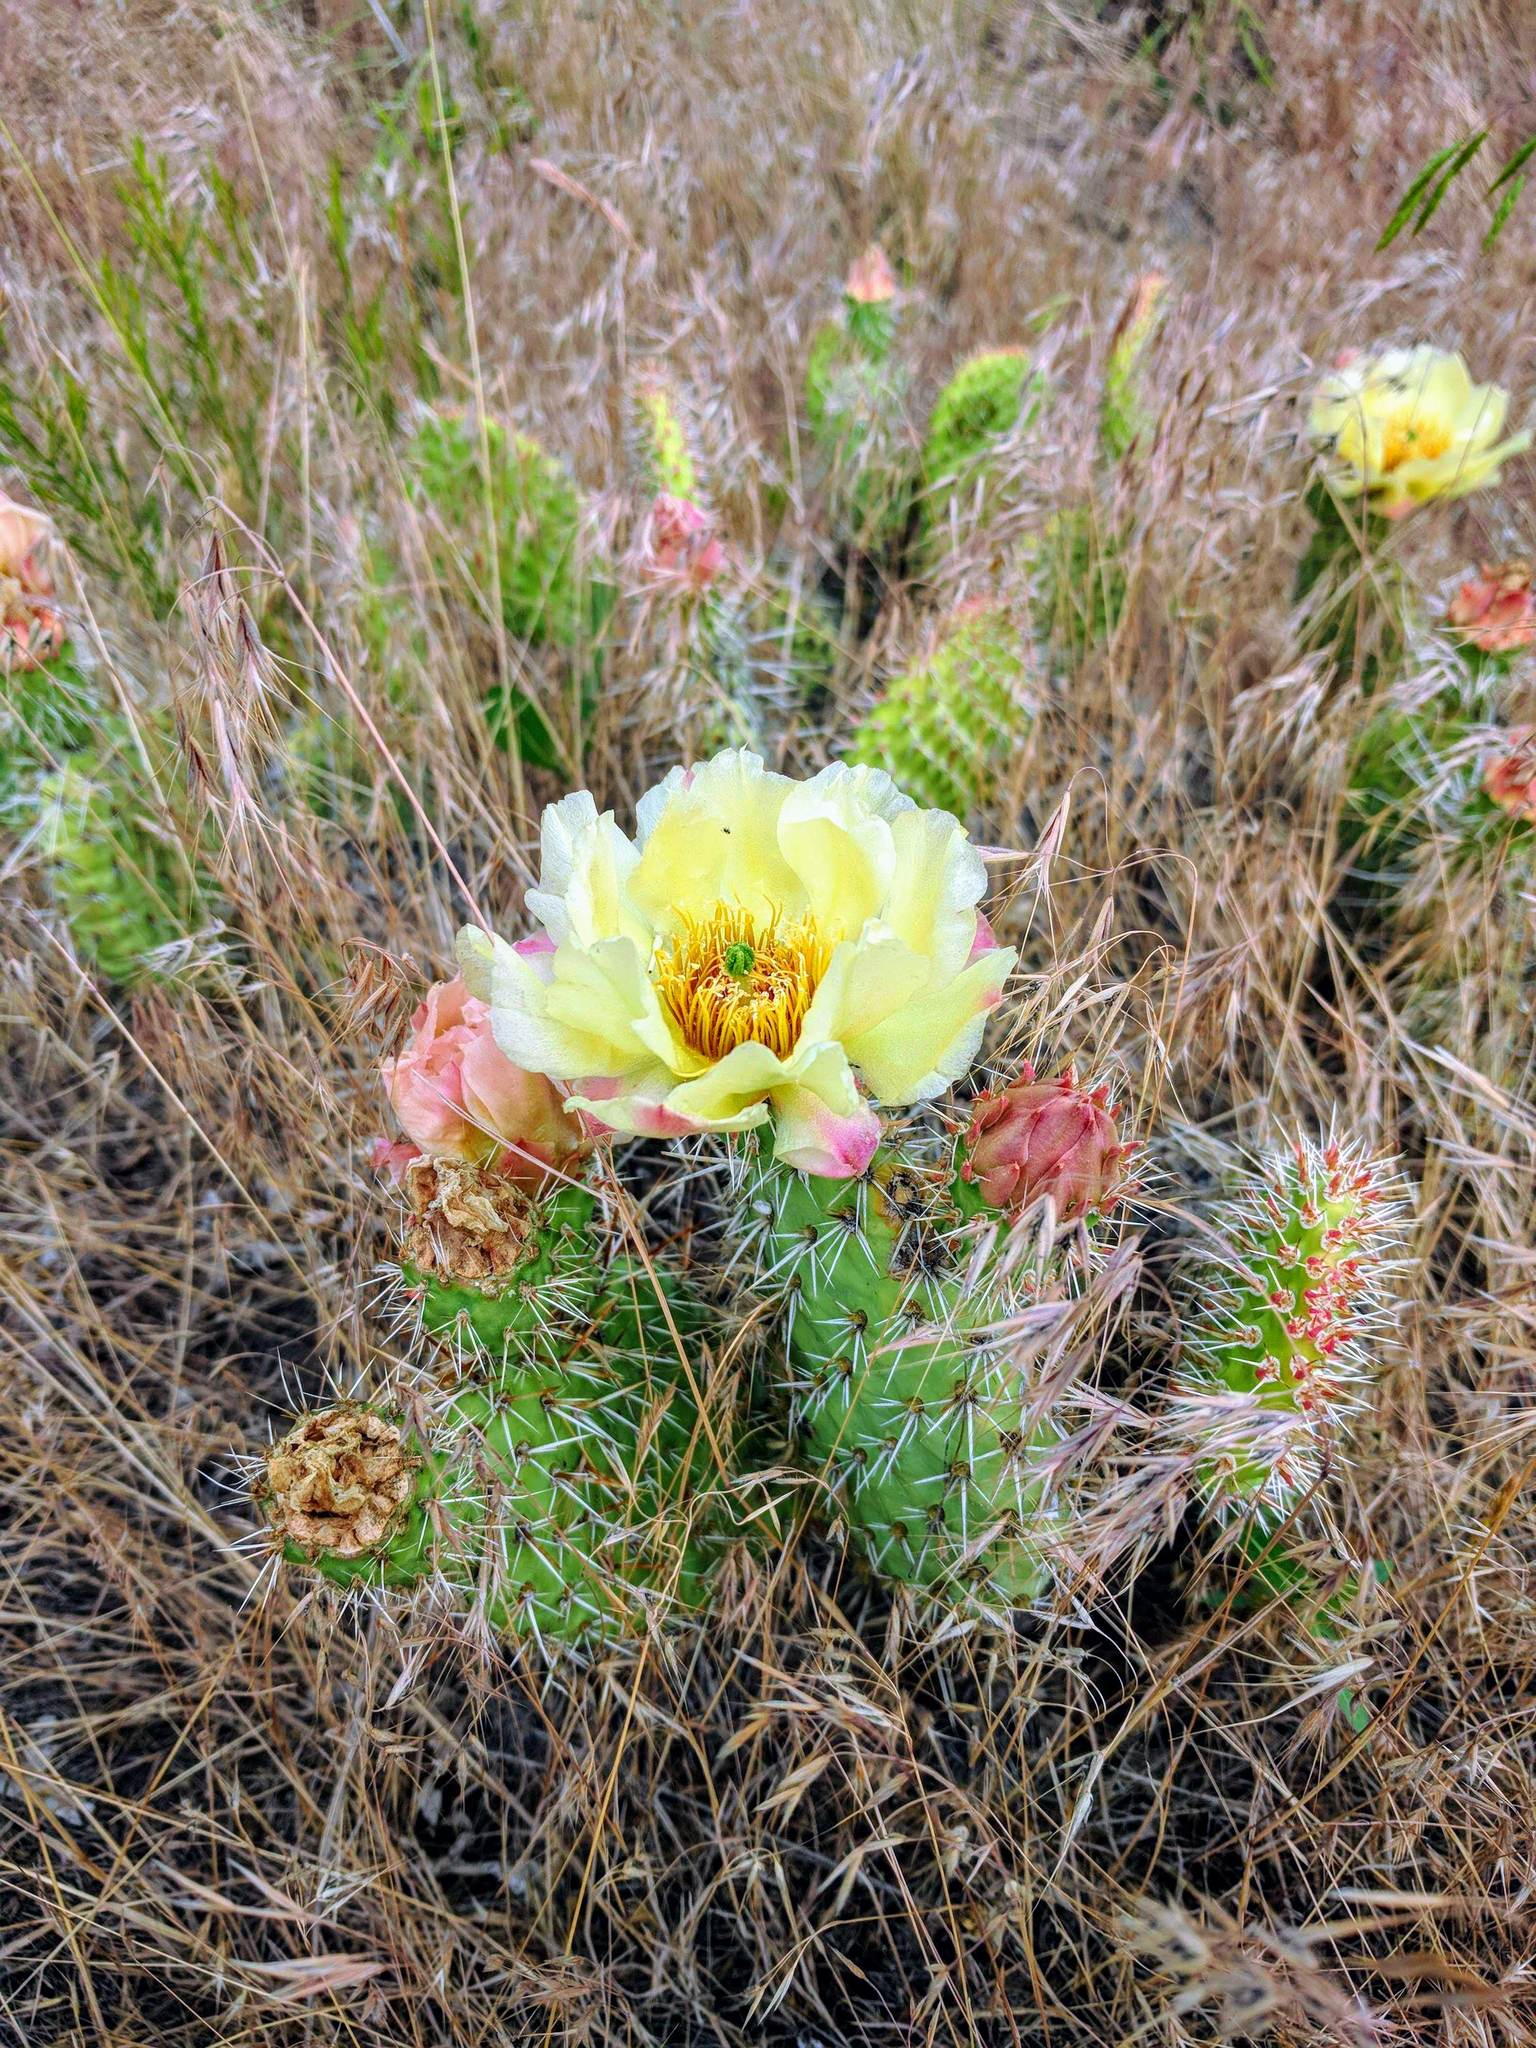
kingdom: Plantae
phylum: Tracheophyta
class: Magnoliopsida
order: Caryophyllales
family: Cactaceae
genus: Opuntia
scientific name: Opuntia polyacantha
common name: Plains prickly-pear
